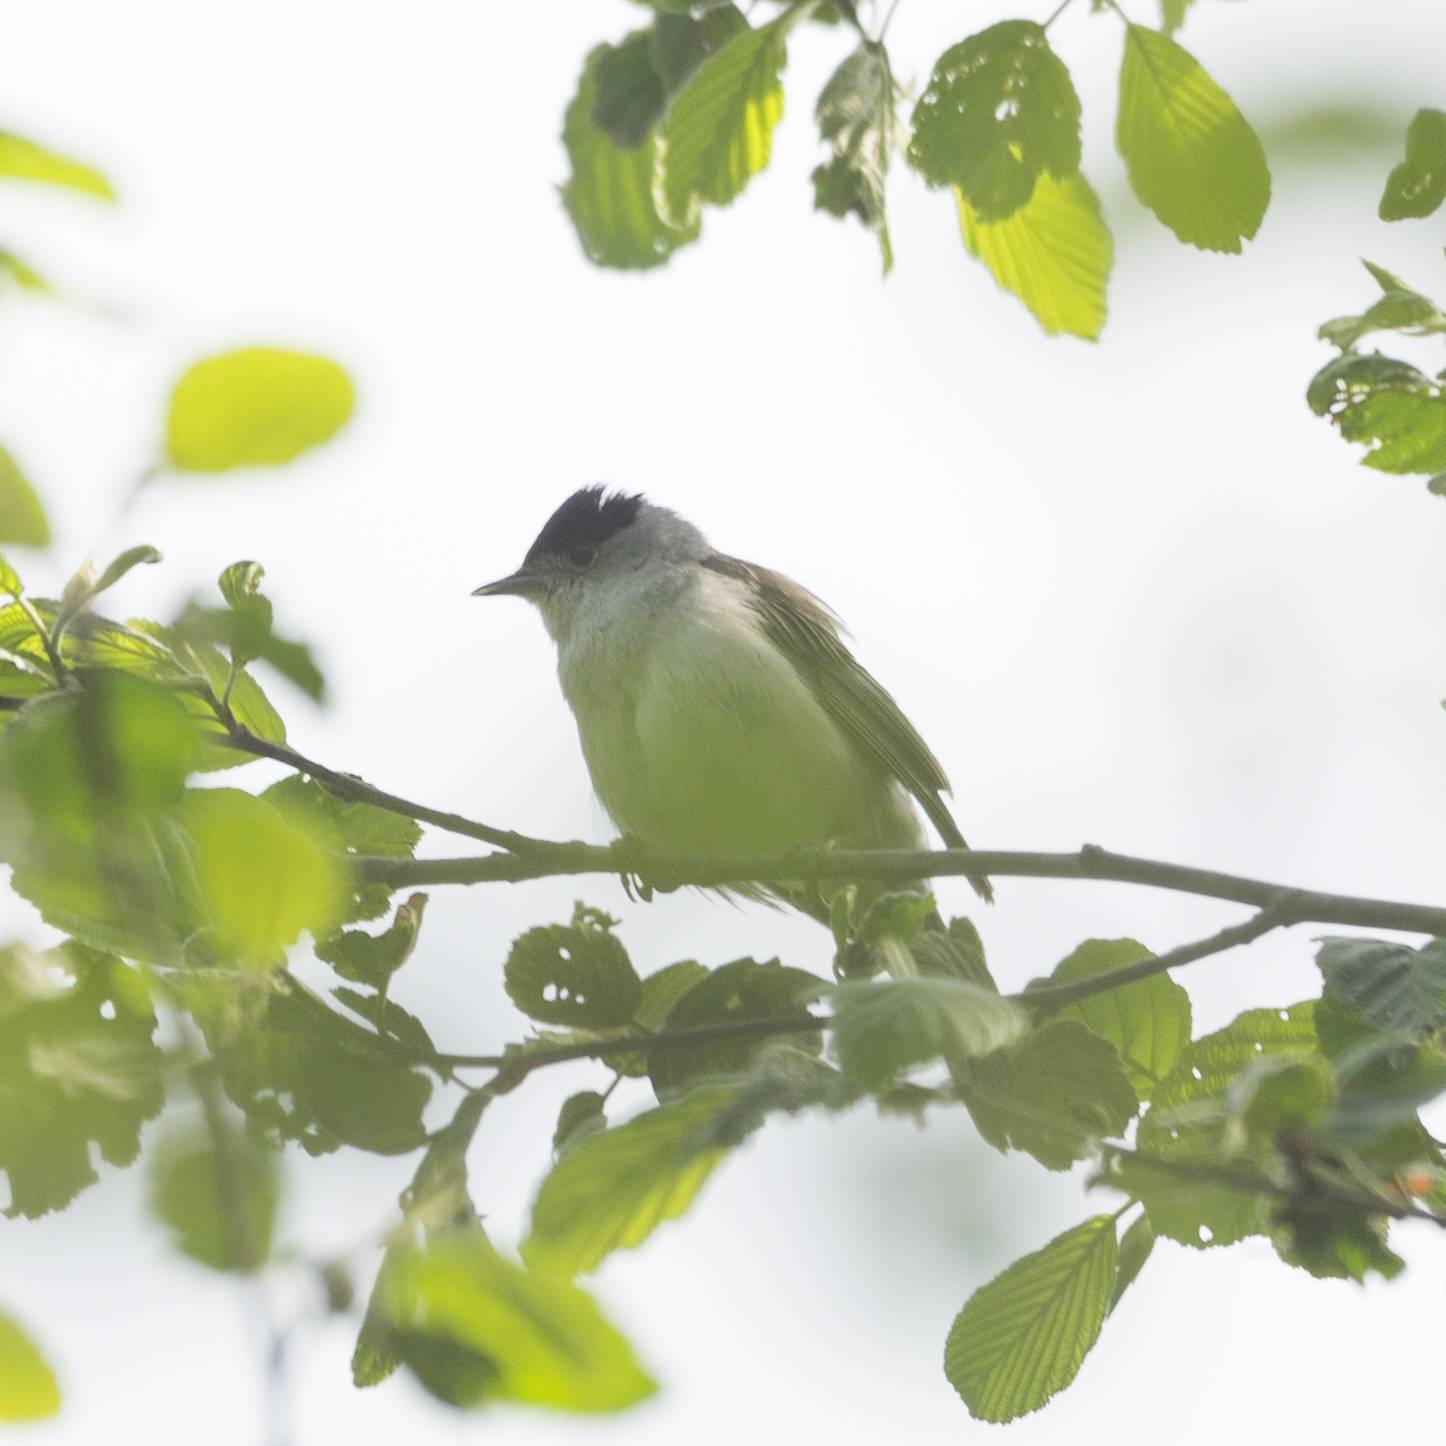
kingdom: Animalia
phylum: Chordata
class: Aves
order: Passeriformes
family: Sylviidae
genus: Sylvia
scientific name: Sylvia atricapilla
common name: Eurasian blackcap
